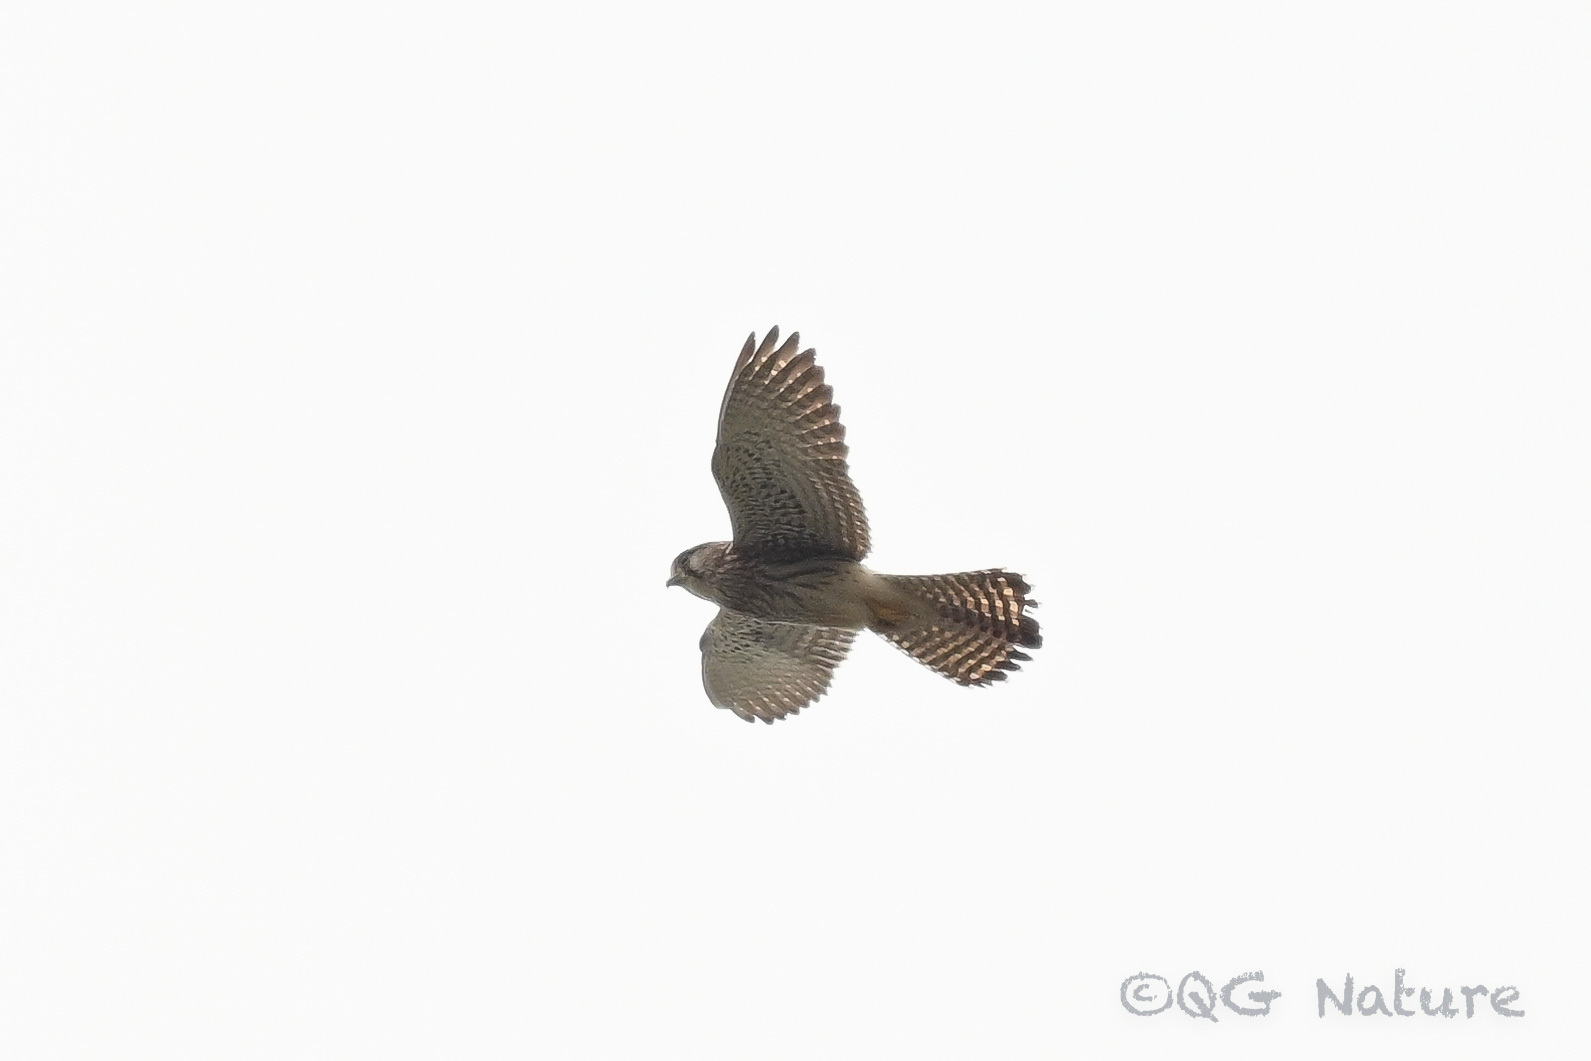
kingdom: Animalia
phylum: Chordata
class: Aves
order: Falconiformes
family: Falconidae
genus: Falco
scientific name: Falco tinnunculus
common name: Common kestrel
